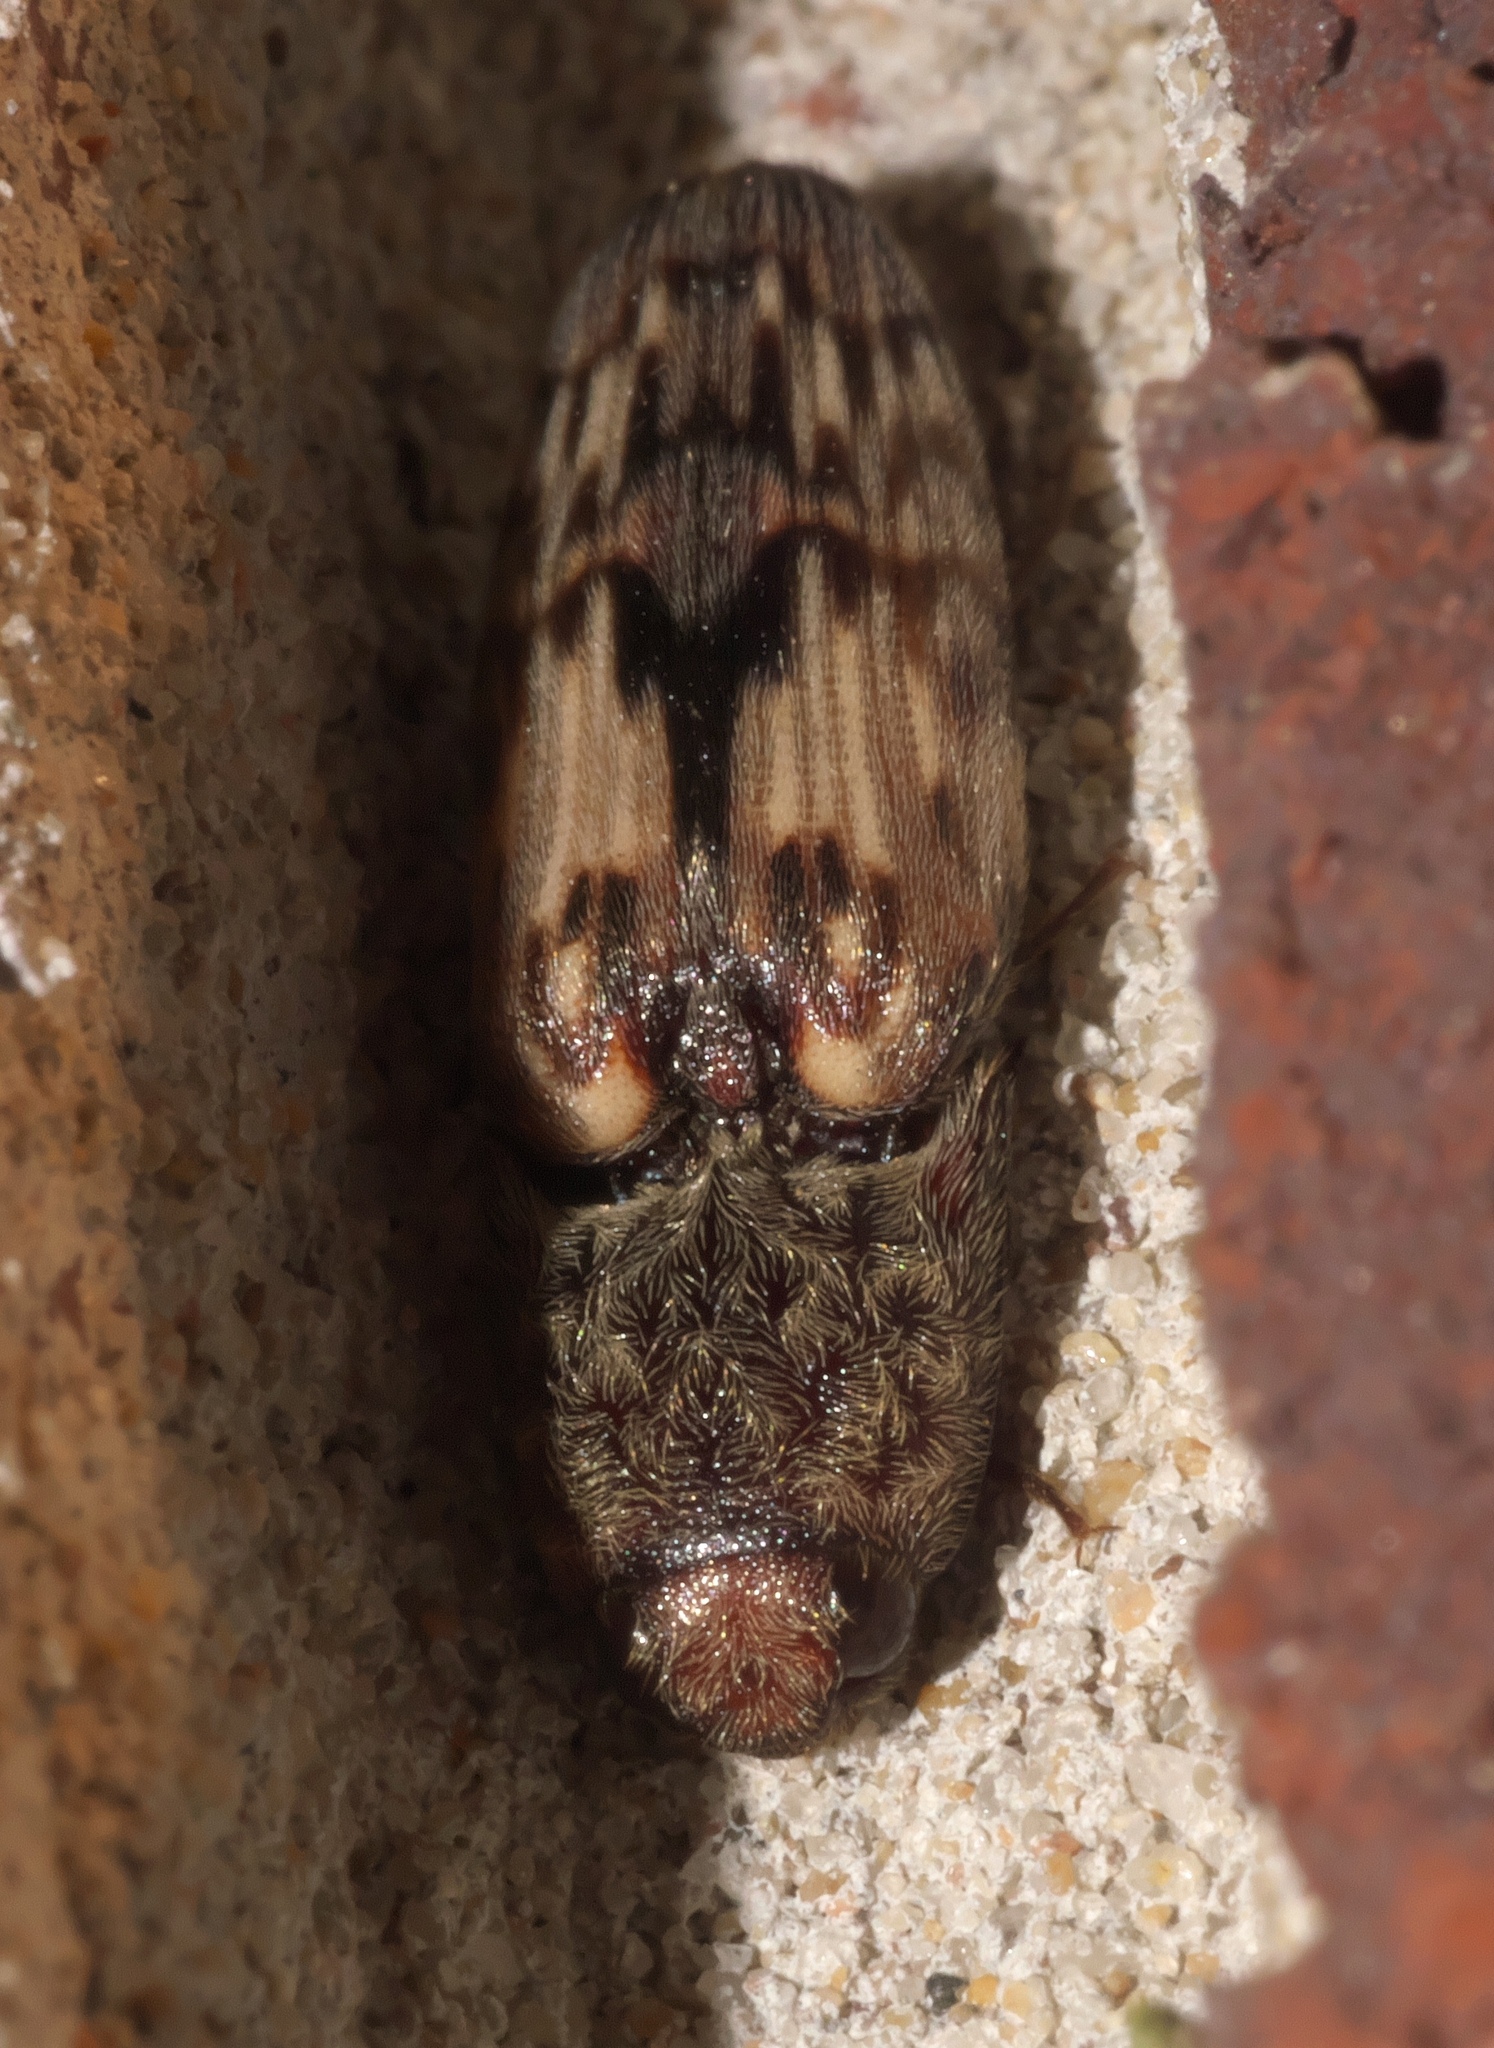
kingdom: Animalia
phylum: Arthropoda
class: Insecta
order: Coleoptera
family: Elateridae
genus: Pherhimius
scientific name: Pherhimius fascicularis
